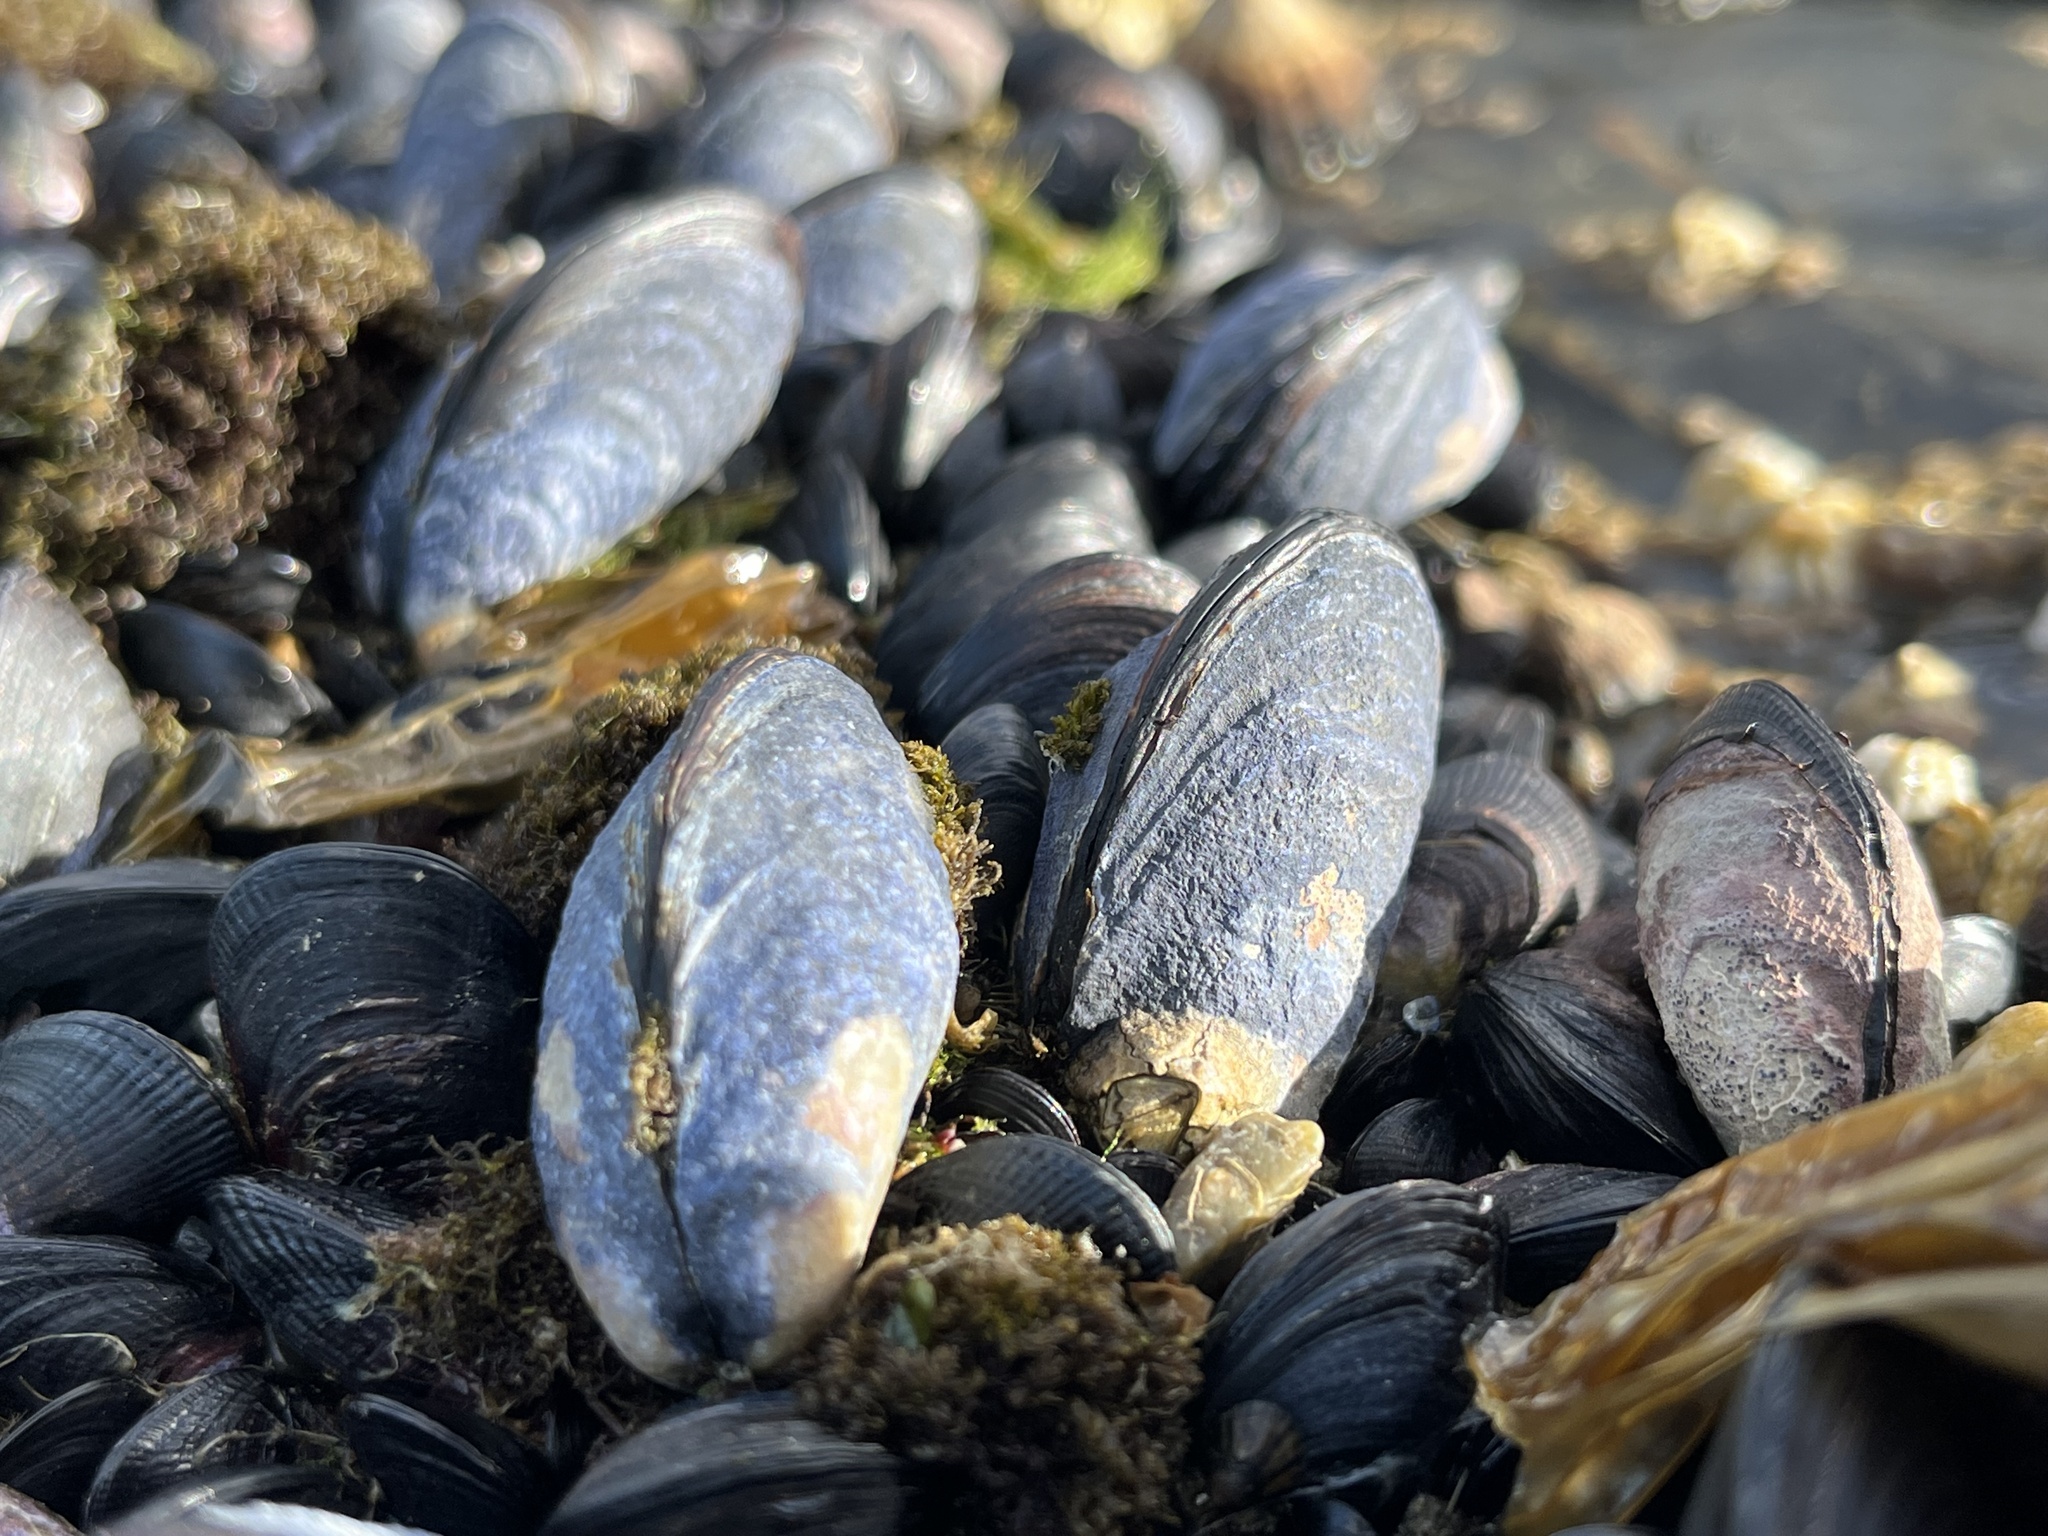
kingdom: Animalia
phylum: Mollusca
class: Bivalvia
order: Mytilida
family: Mytilidae
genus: Mytilus
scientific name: Mytilus chilensis
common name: Chilean mussel
